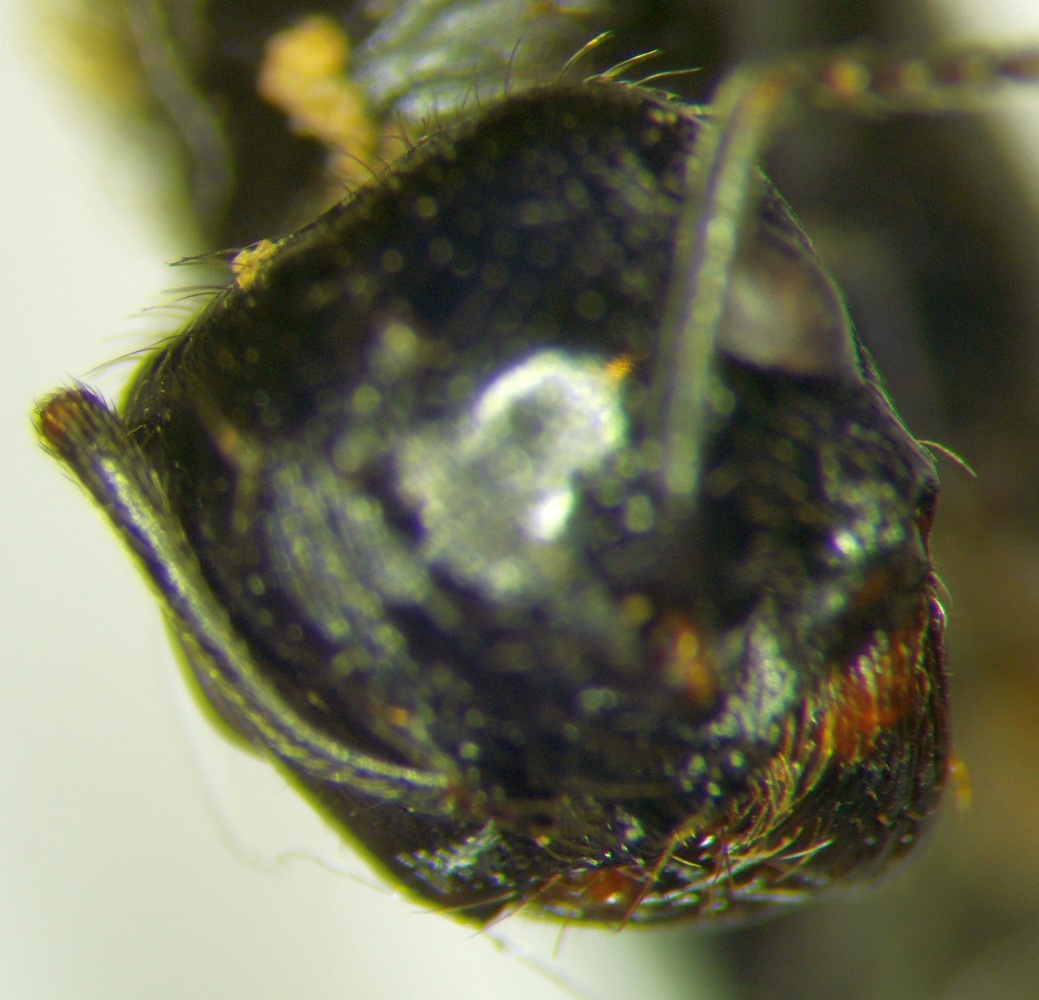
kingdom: Animalia
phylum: Arthropoda
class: Insecta
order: Hymenoptera
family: Formicidae
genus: Messor
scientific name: Messor denticulatus
